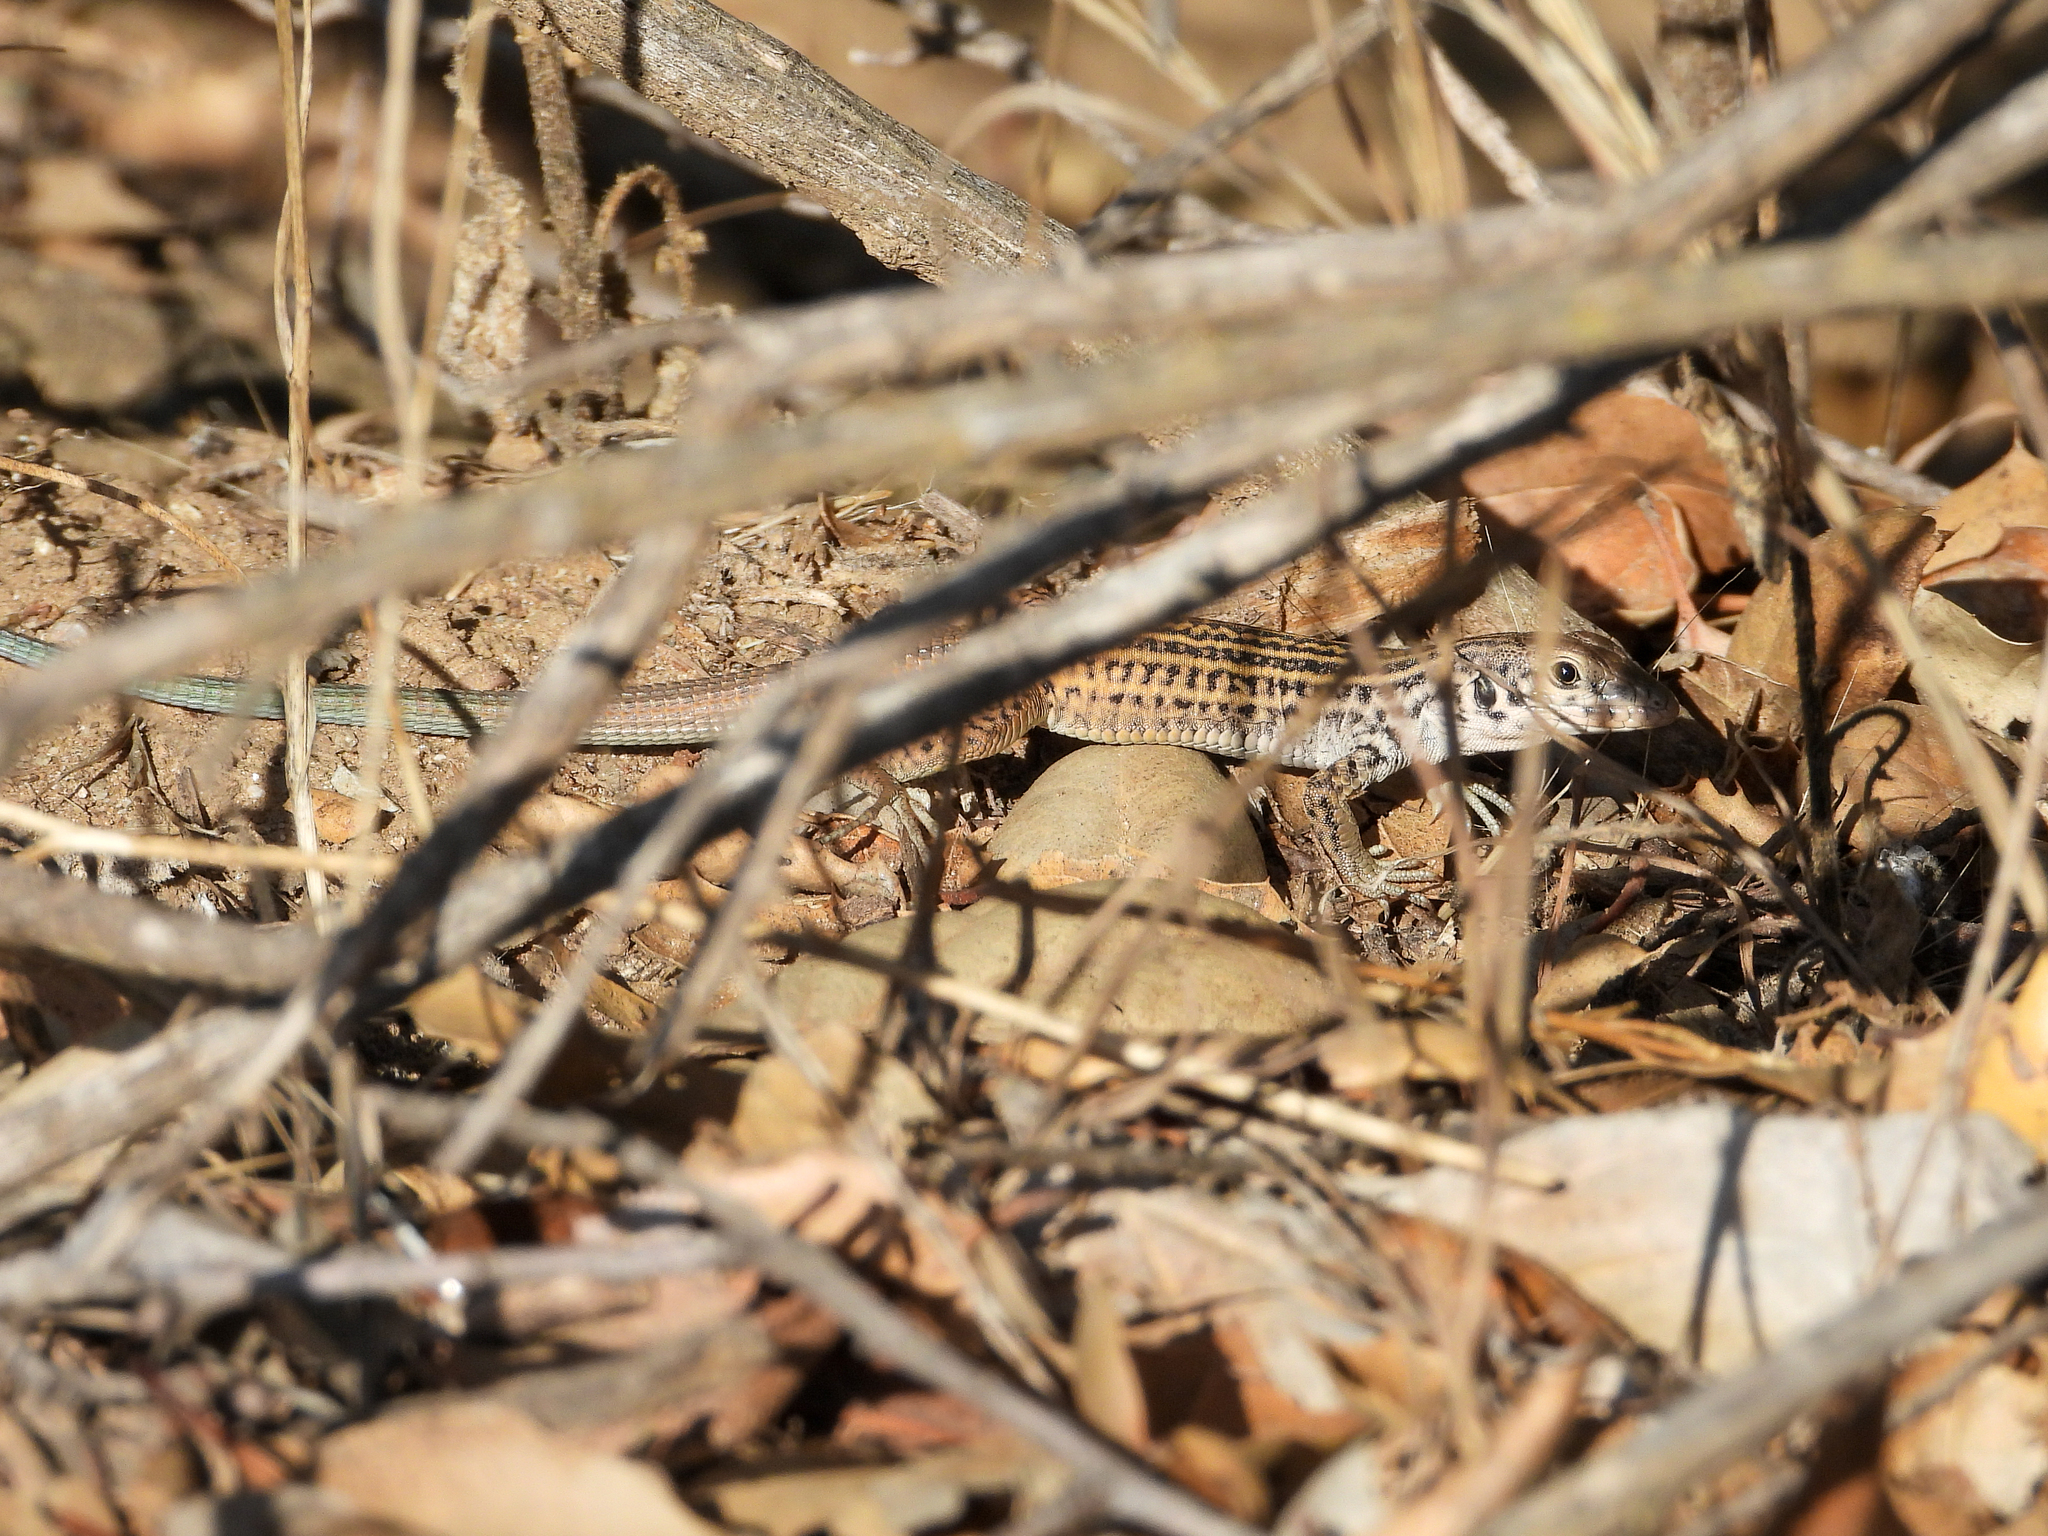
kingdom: Animalia
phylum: Chordata
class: Squamata
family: Teiidae
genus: Aspidoscelis
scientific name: Aspidoscelis tigris
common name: Tiger whiptail
